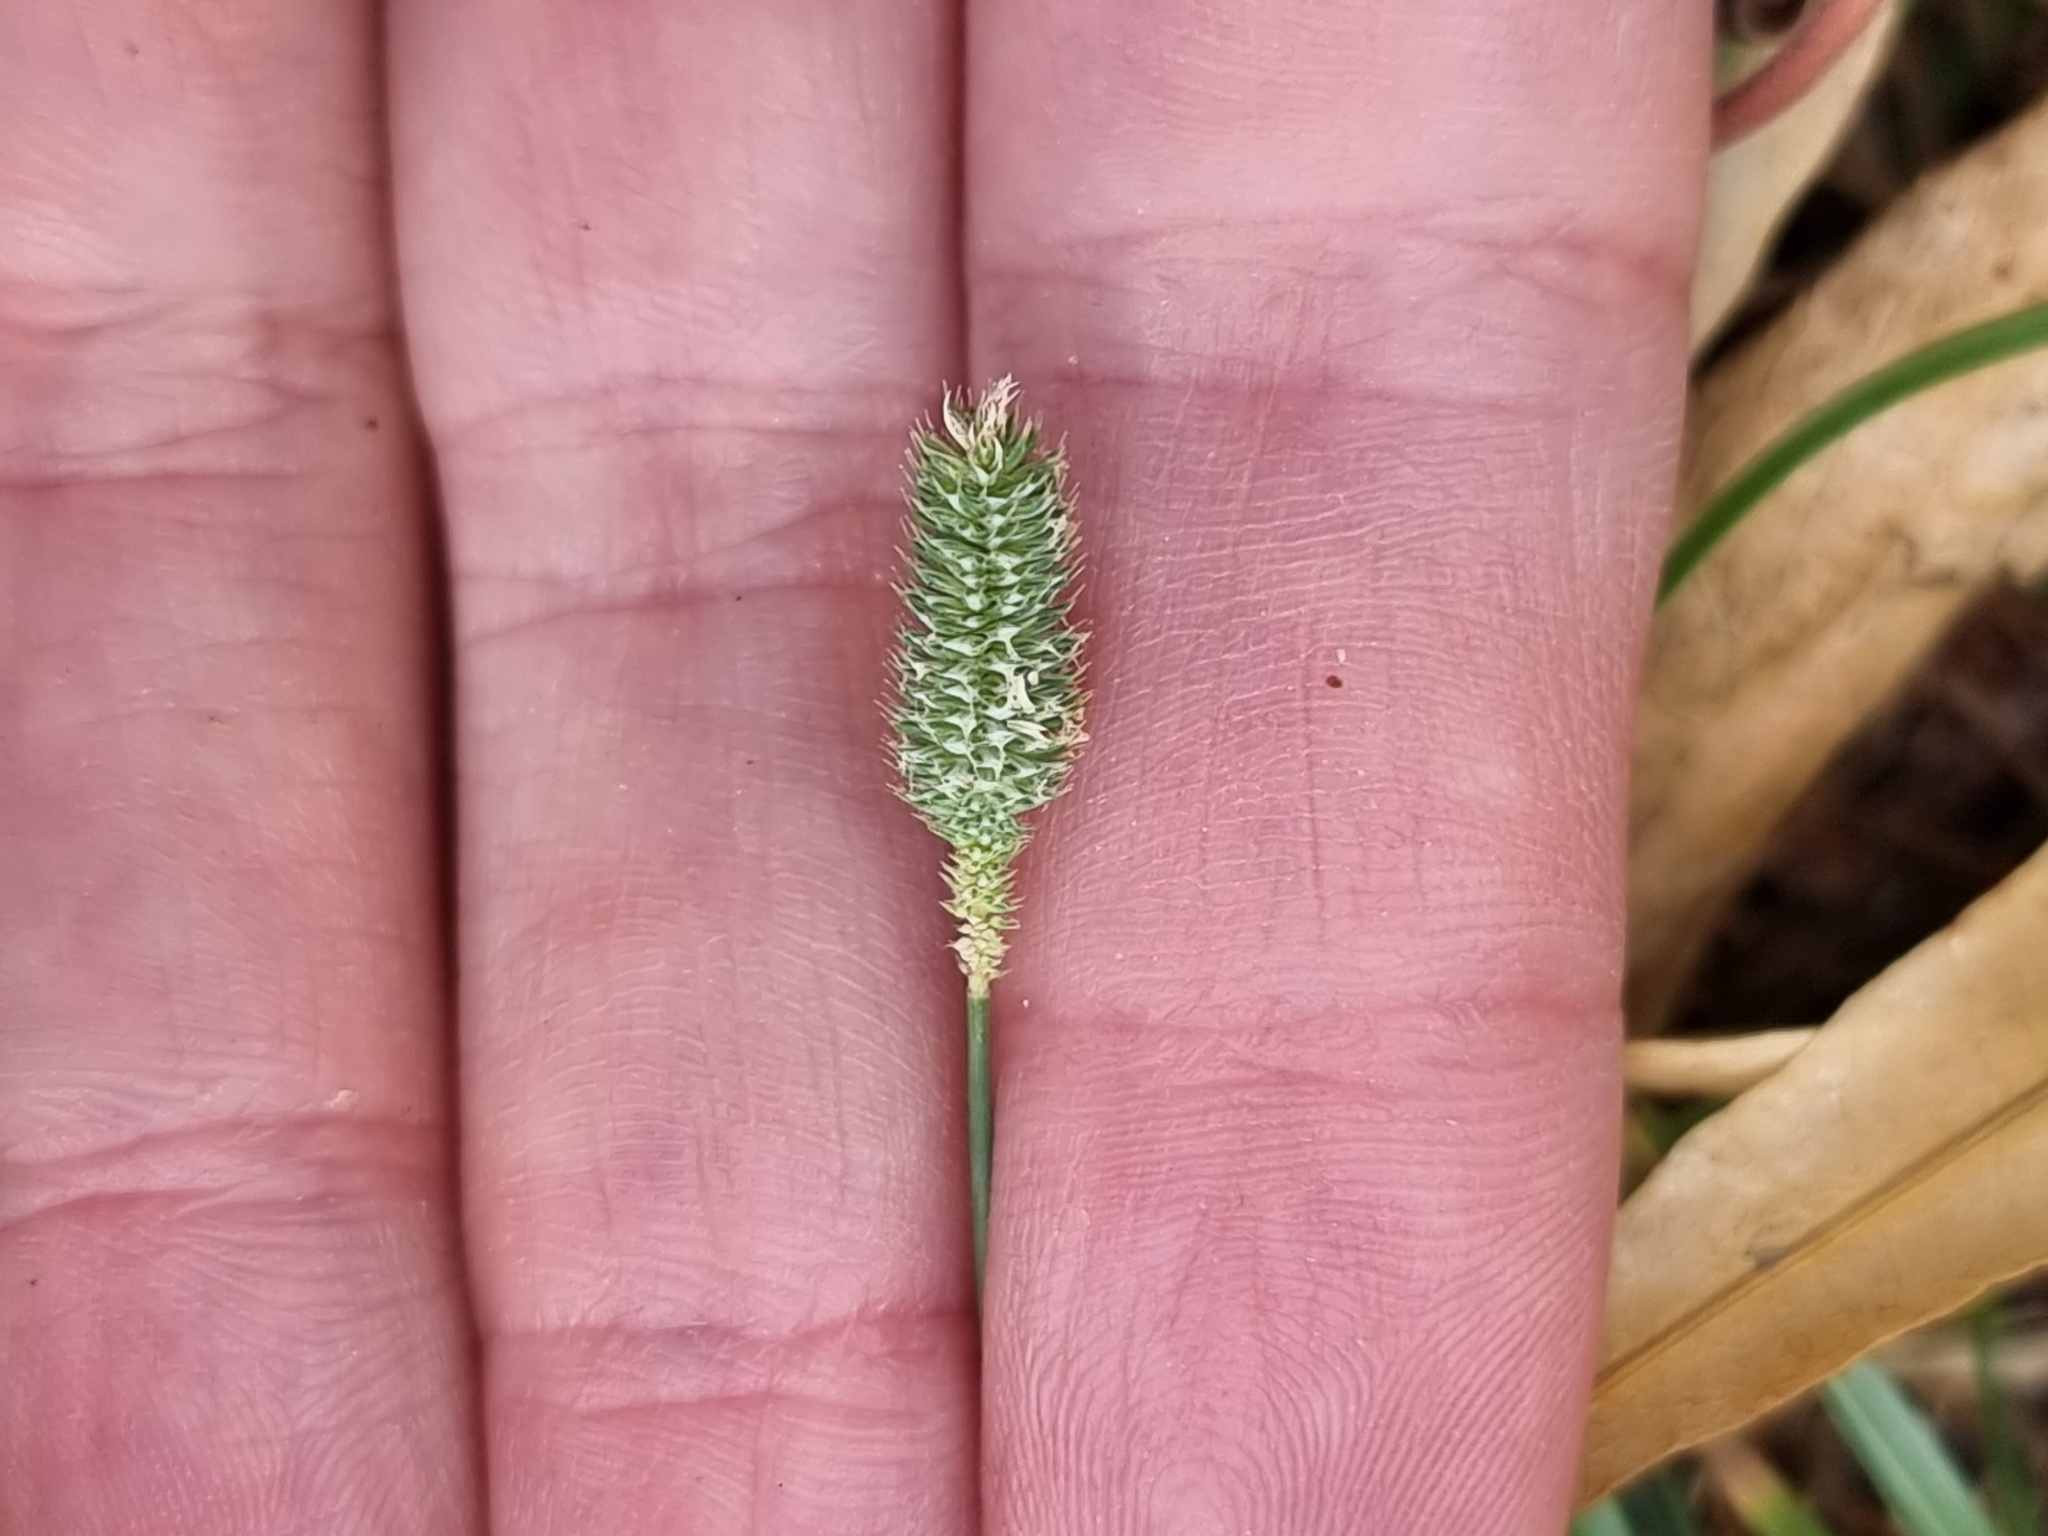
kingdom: Plantae
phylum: Tracheophyta
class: Liliopsida
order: Poales
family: Poaceae
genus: Phleum
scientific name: Phleum bertolonii
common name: Smaller cat's-tail
